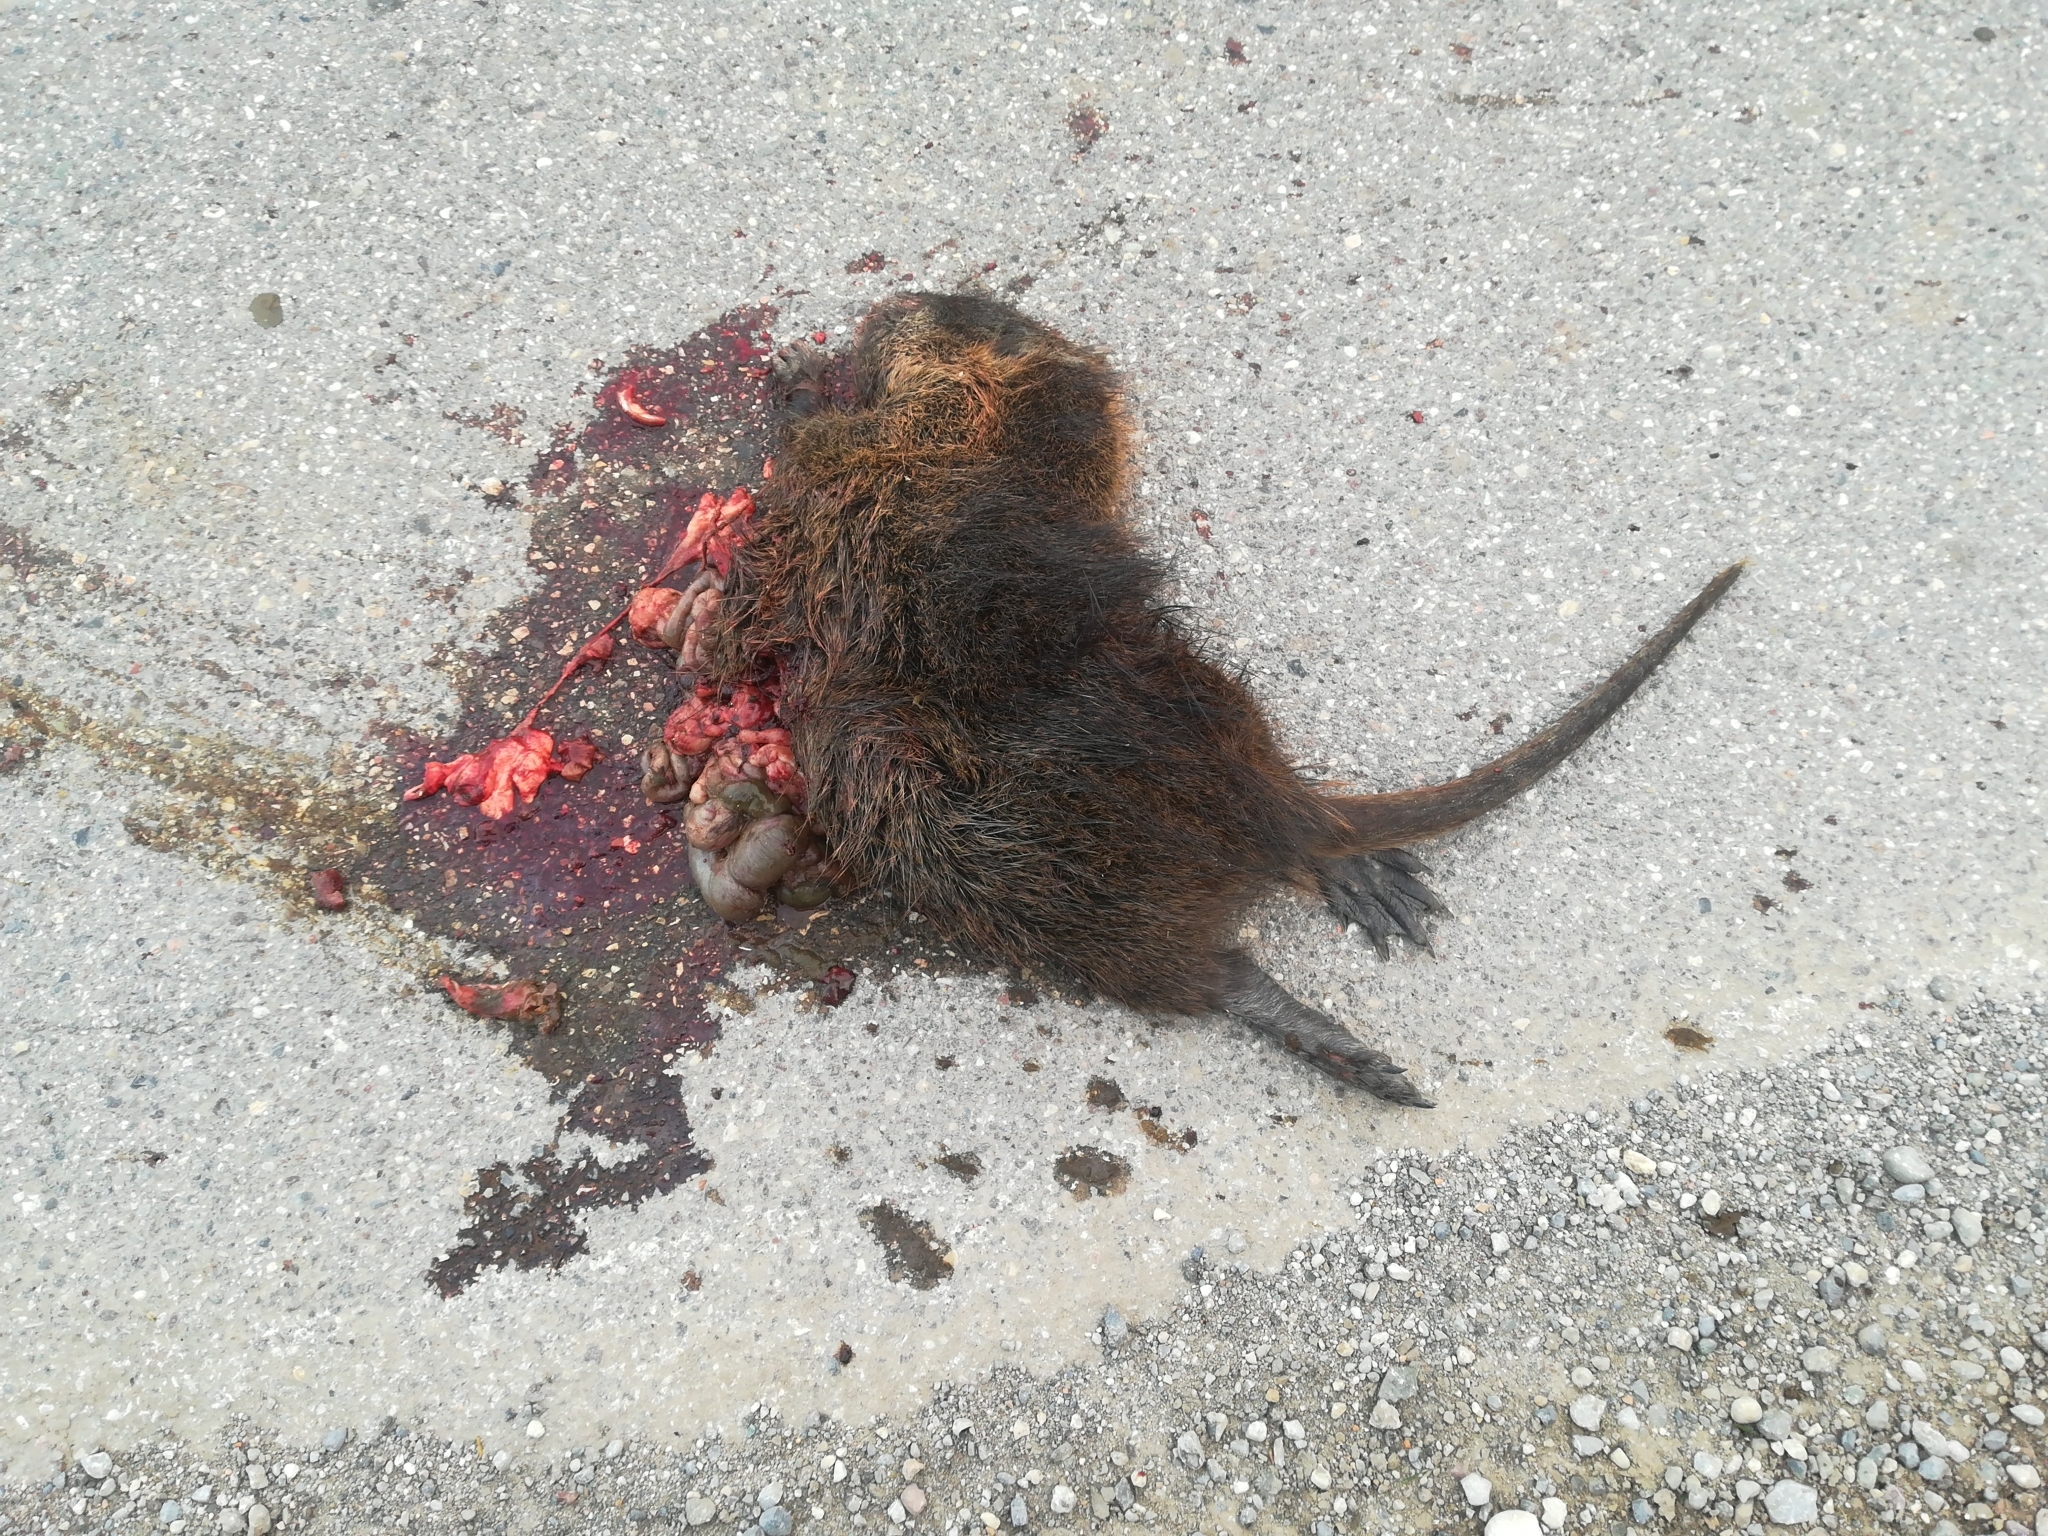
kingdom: Animalia
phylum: Chordata
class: Mammalia
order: Rodentia
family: Myocastoridae
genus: Myocastor
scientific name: Myocastor coypus
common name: Coypu
